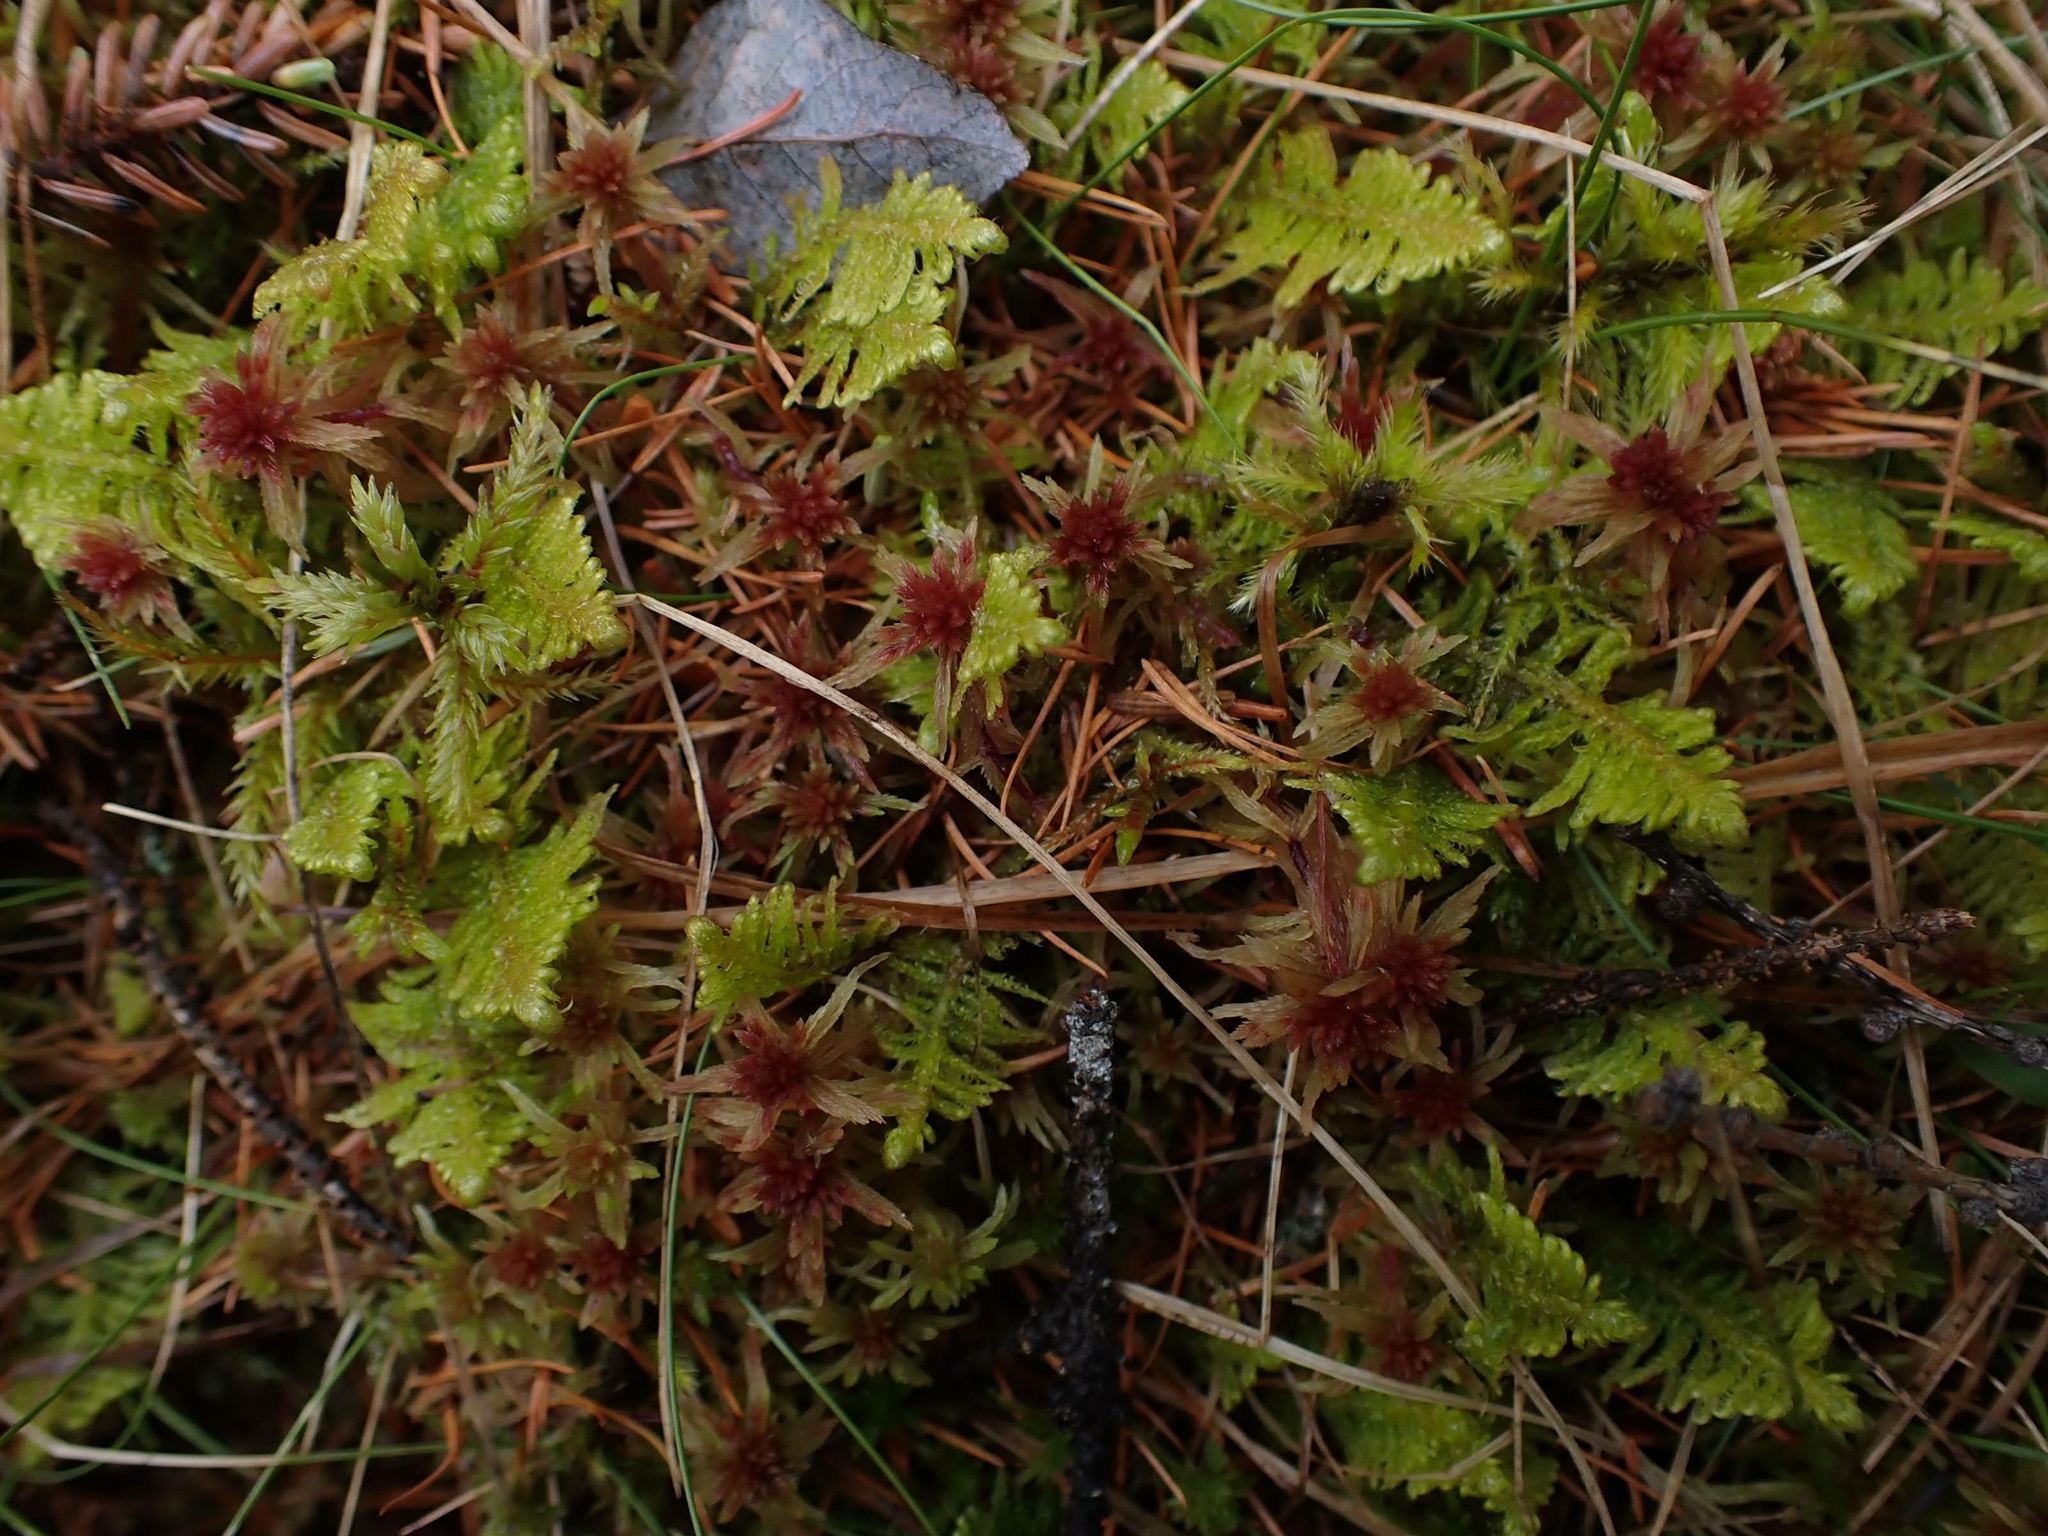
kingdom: Plantae
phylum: Bryophyta
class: Bryopsida
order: Hypnales
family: Pylaisiaceae
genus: Ptilium
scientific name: Ptilium crista-castrensis
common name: Knight's plume moss
